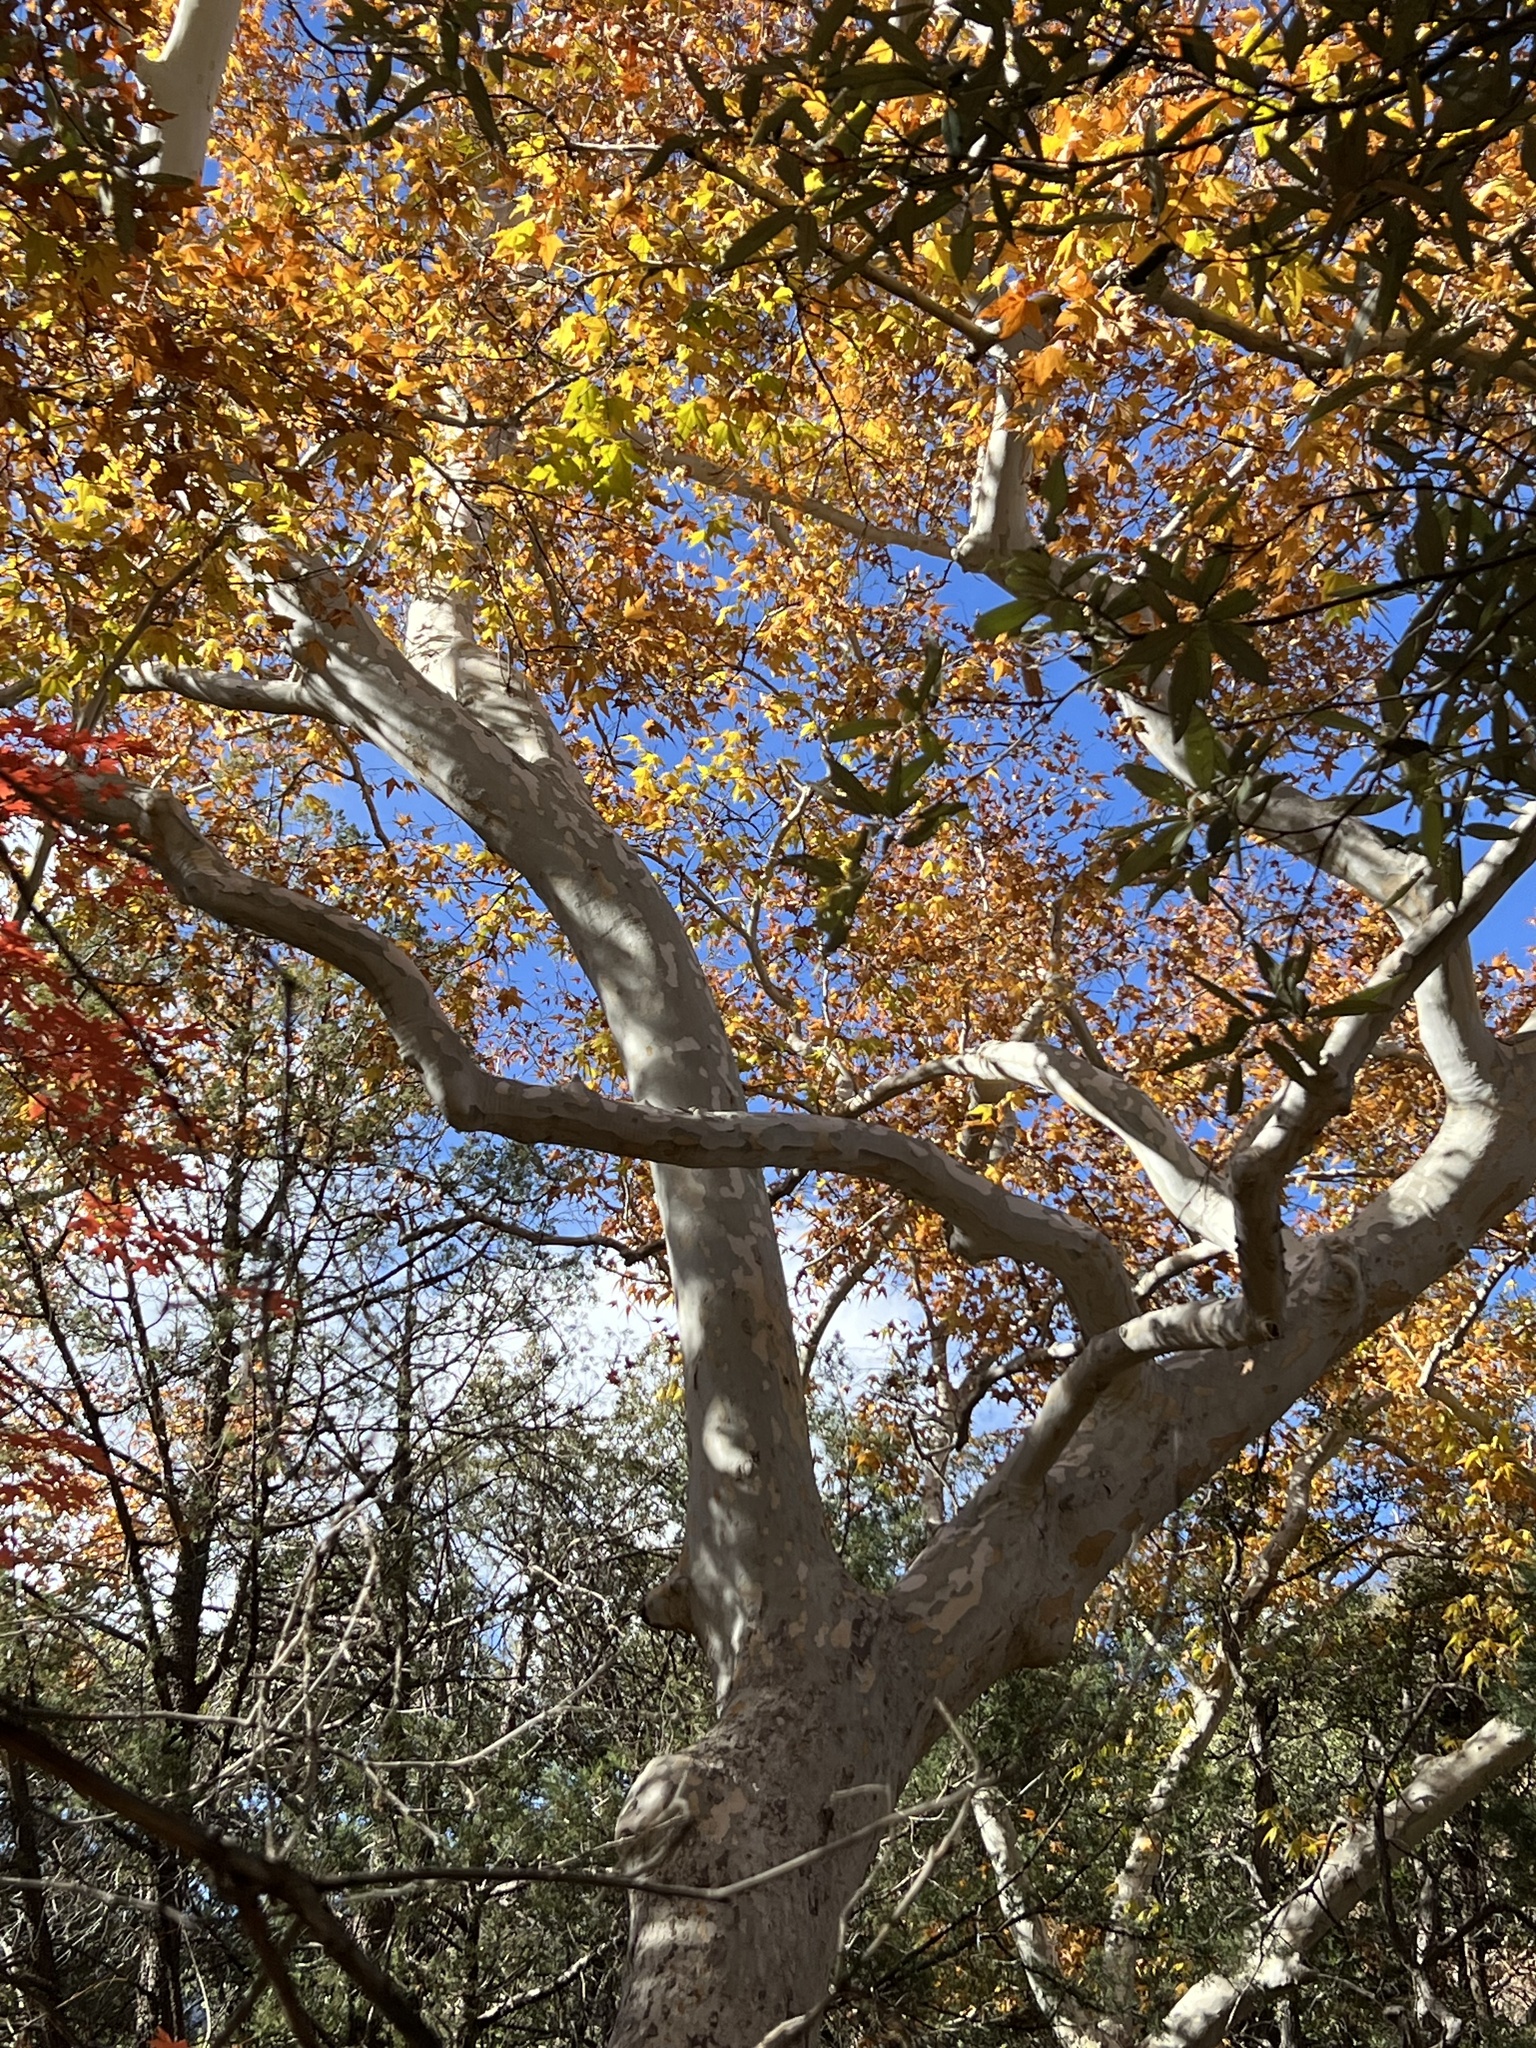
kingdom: Plantae
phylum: Tracheophyta
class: Magnoliopsida
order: Proteales
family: Platanaceae
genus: Platanus
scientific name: Platanus wrightii
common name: Arizona sycamore
